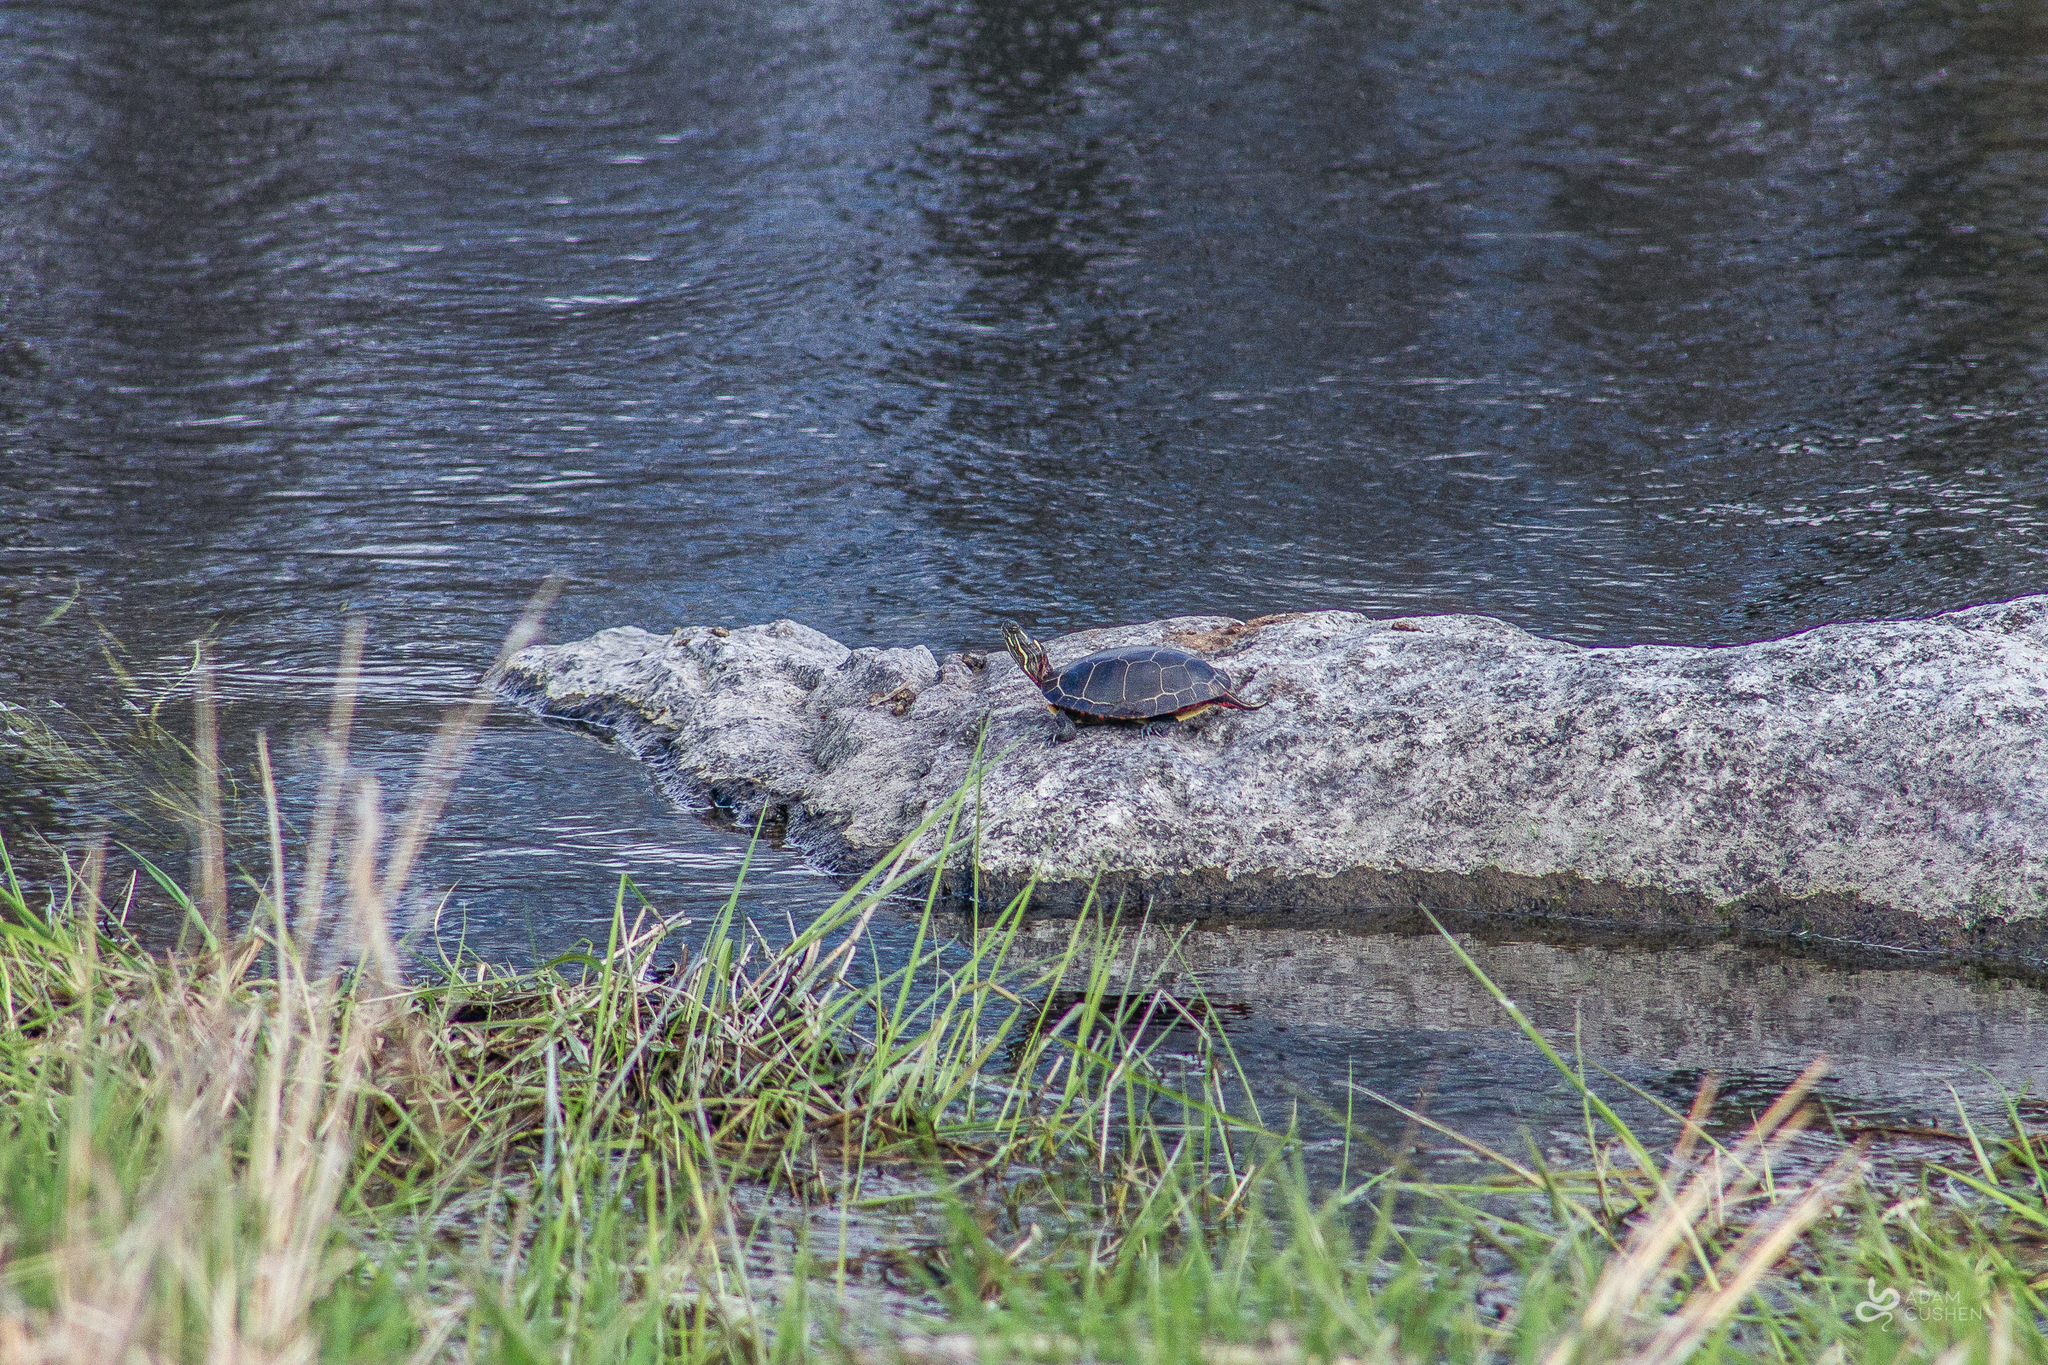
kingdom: Animalia
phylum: Chordata
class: Testudines
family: Emydidae
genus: Chrysemys
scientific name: Chrysemys picta
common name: Painted turtle
